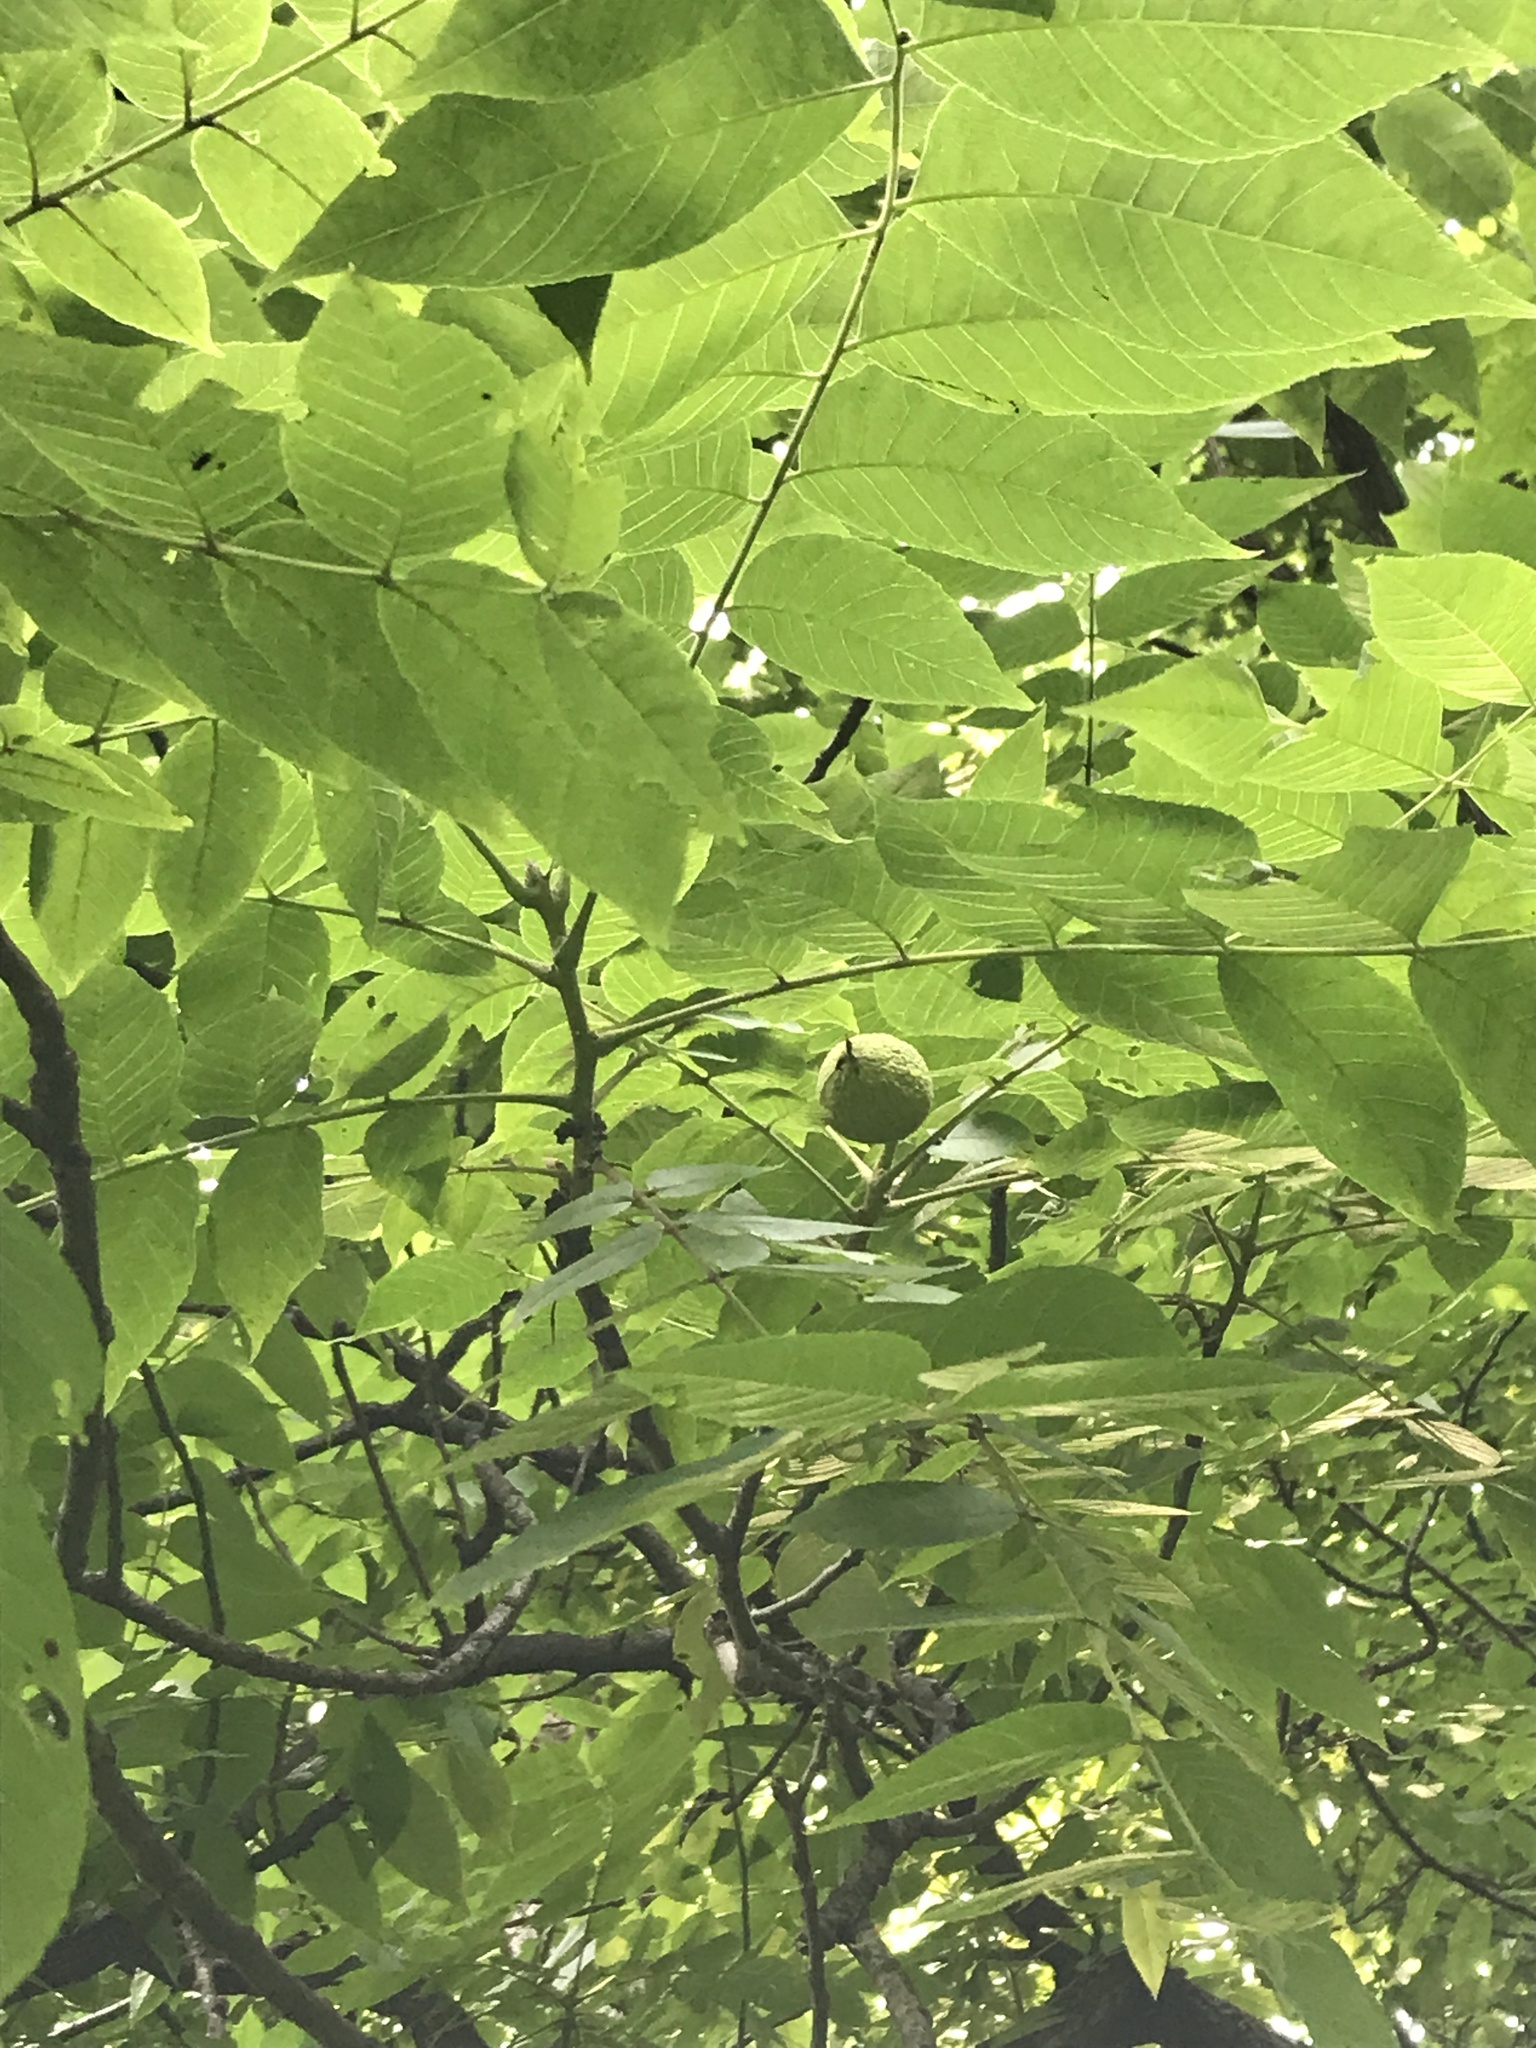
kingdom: Plantae
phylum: Tracheophyta
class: Magnoliopsida
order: Fagales
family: Juglandaceae
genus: Juglans
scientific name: Juglans nigra
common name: Black walnut
